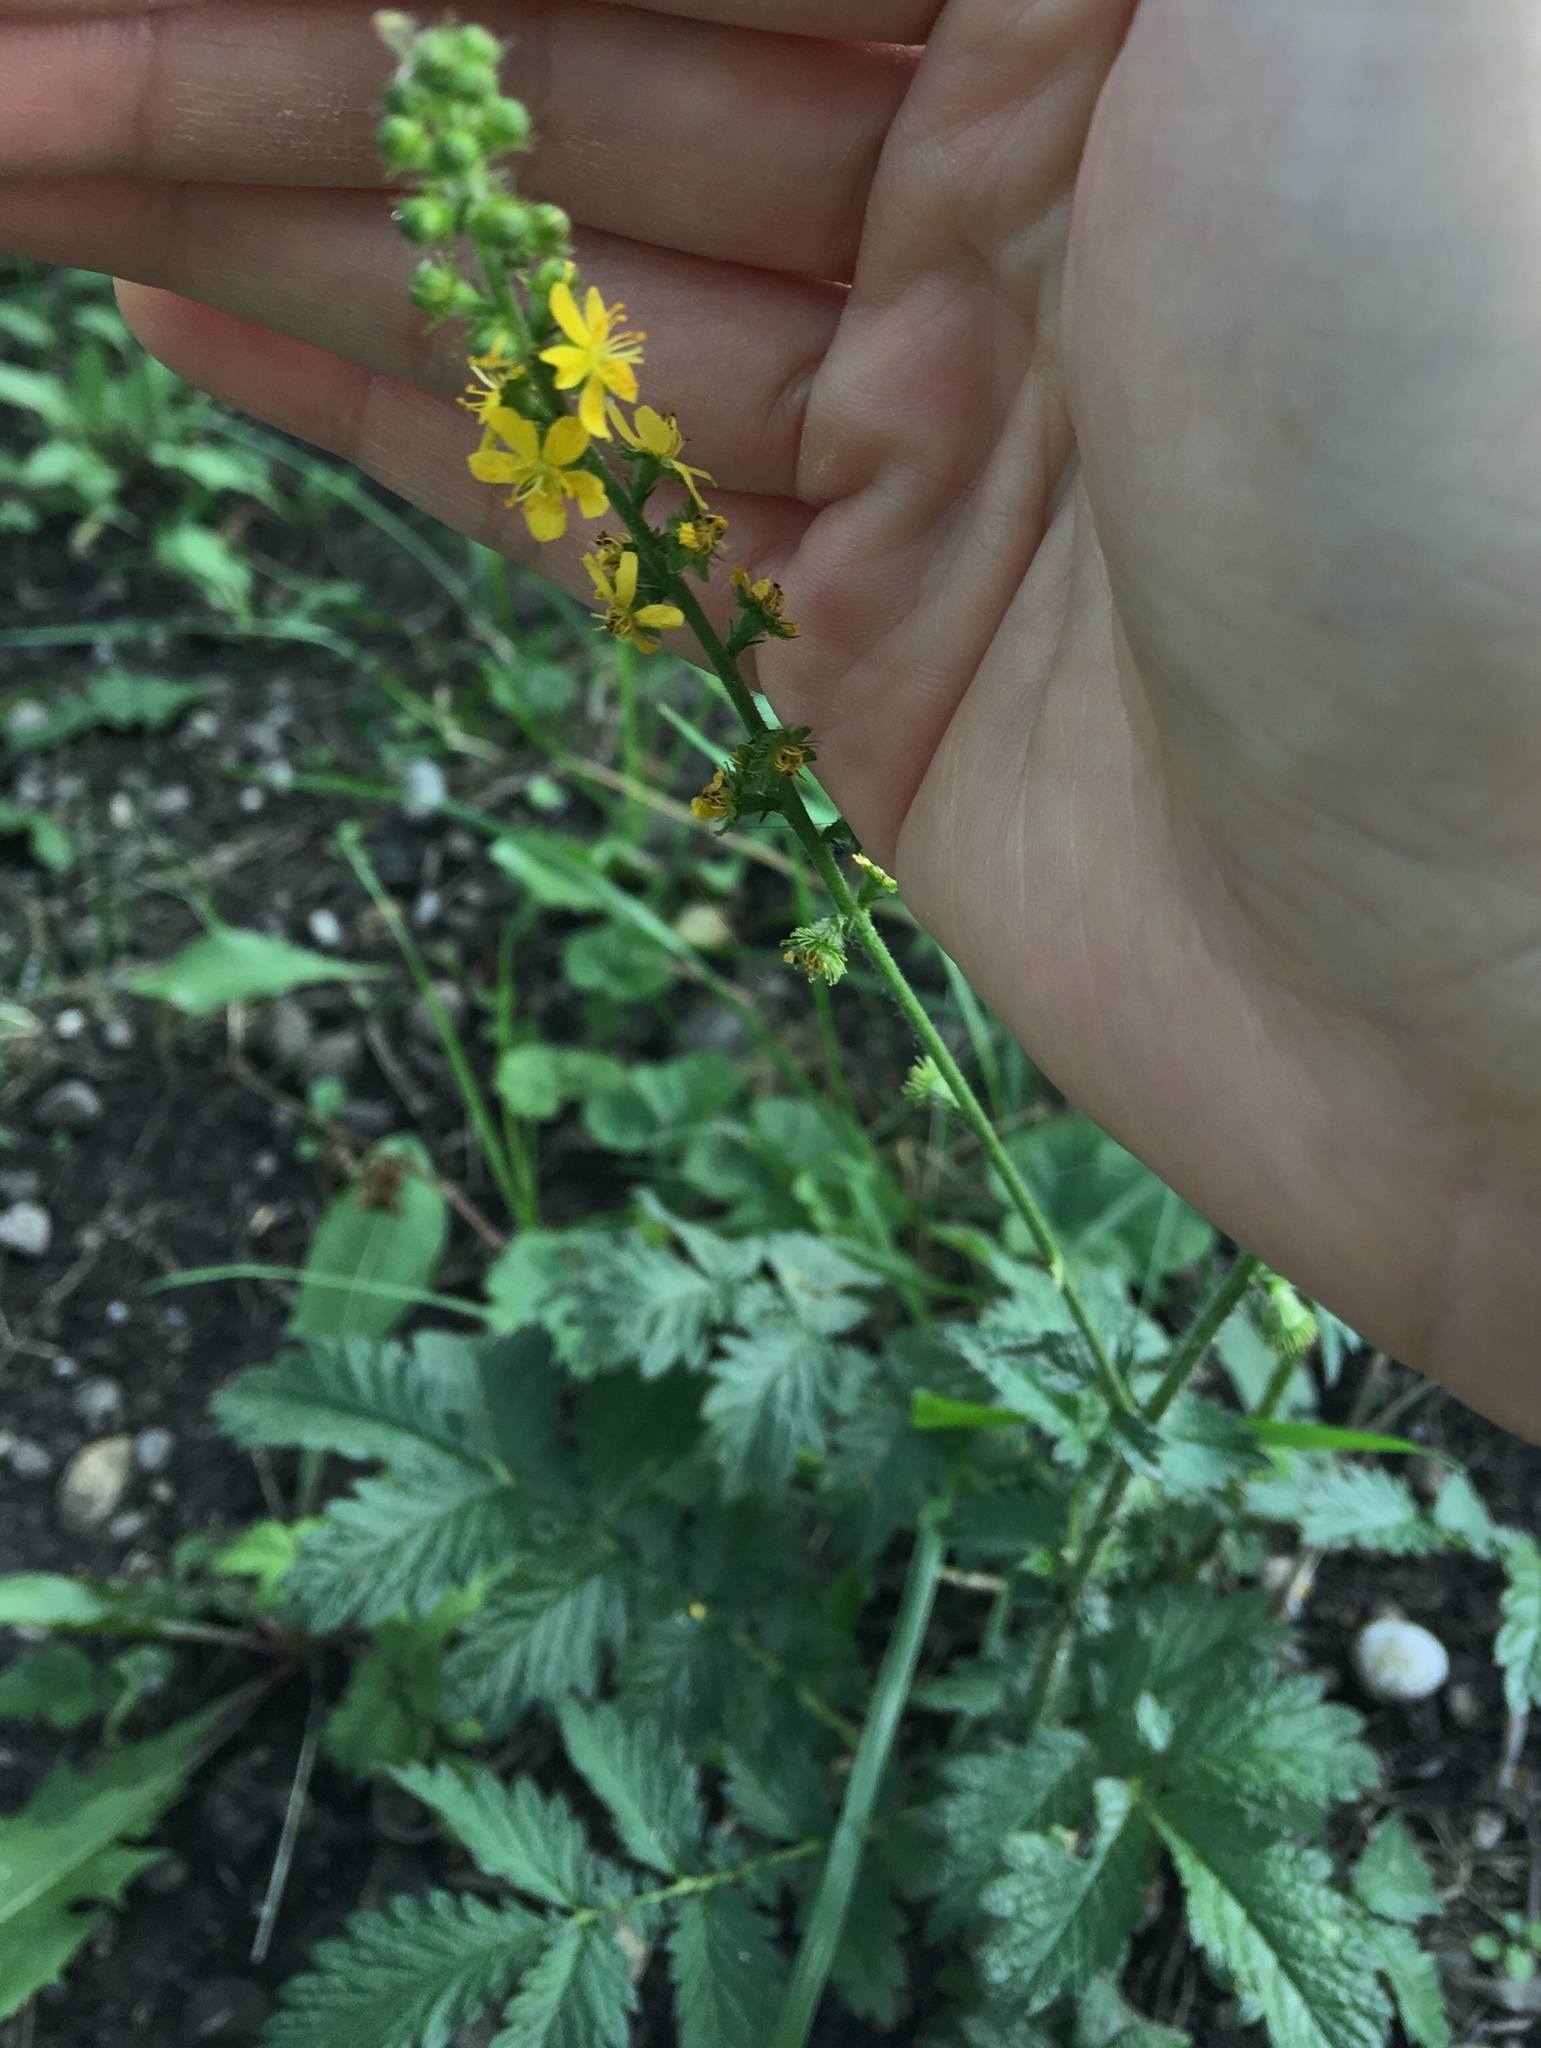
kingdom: Plantae
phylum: Tracheophyta
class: Magnoliopsida
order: Rosales
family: Rosaceae
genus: Agrimonia
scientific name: Agrimonia eupatoria
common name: Agrimony
